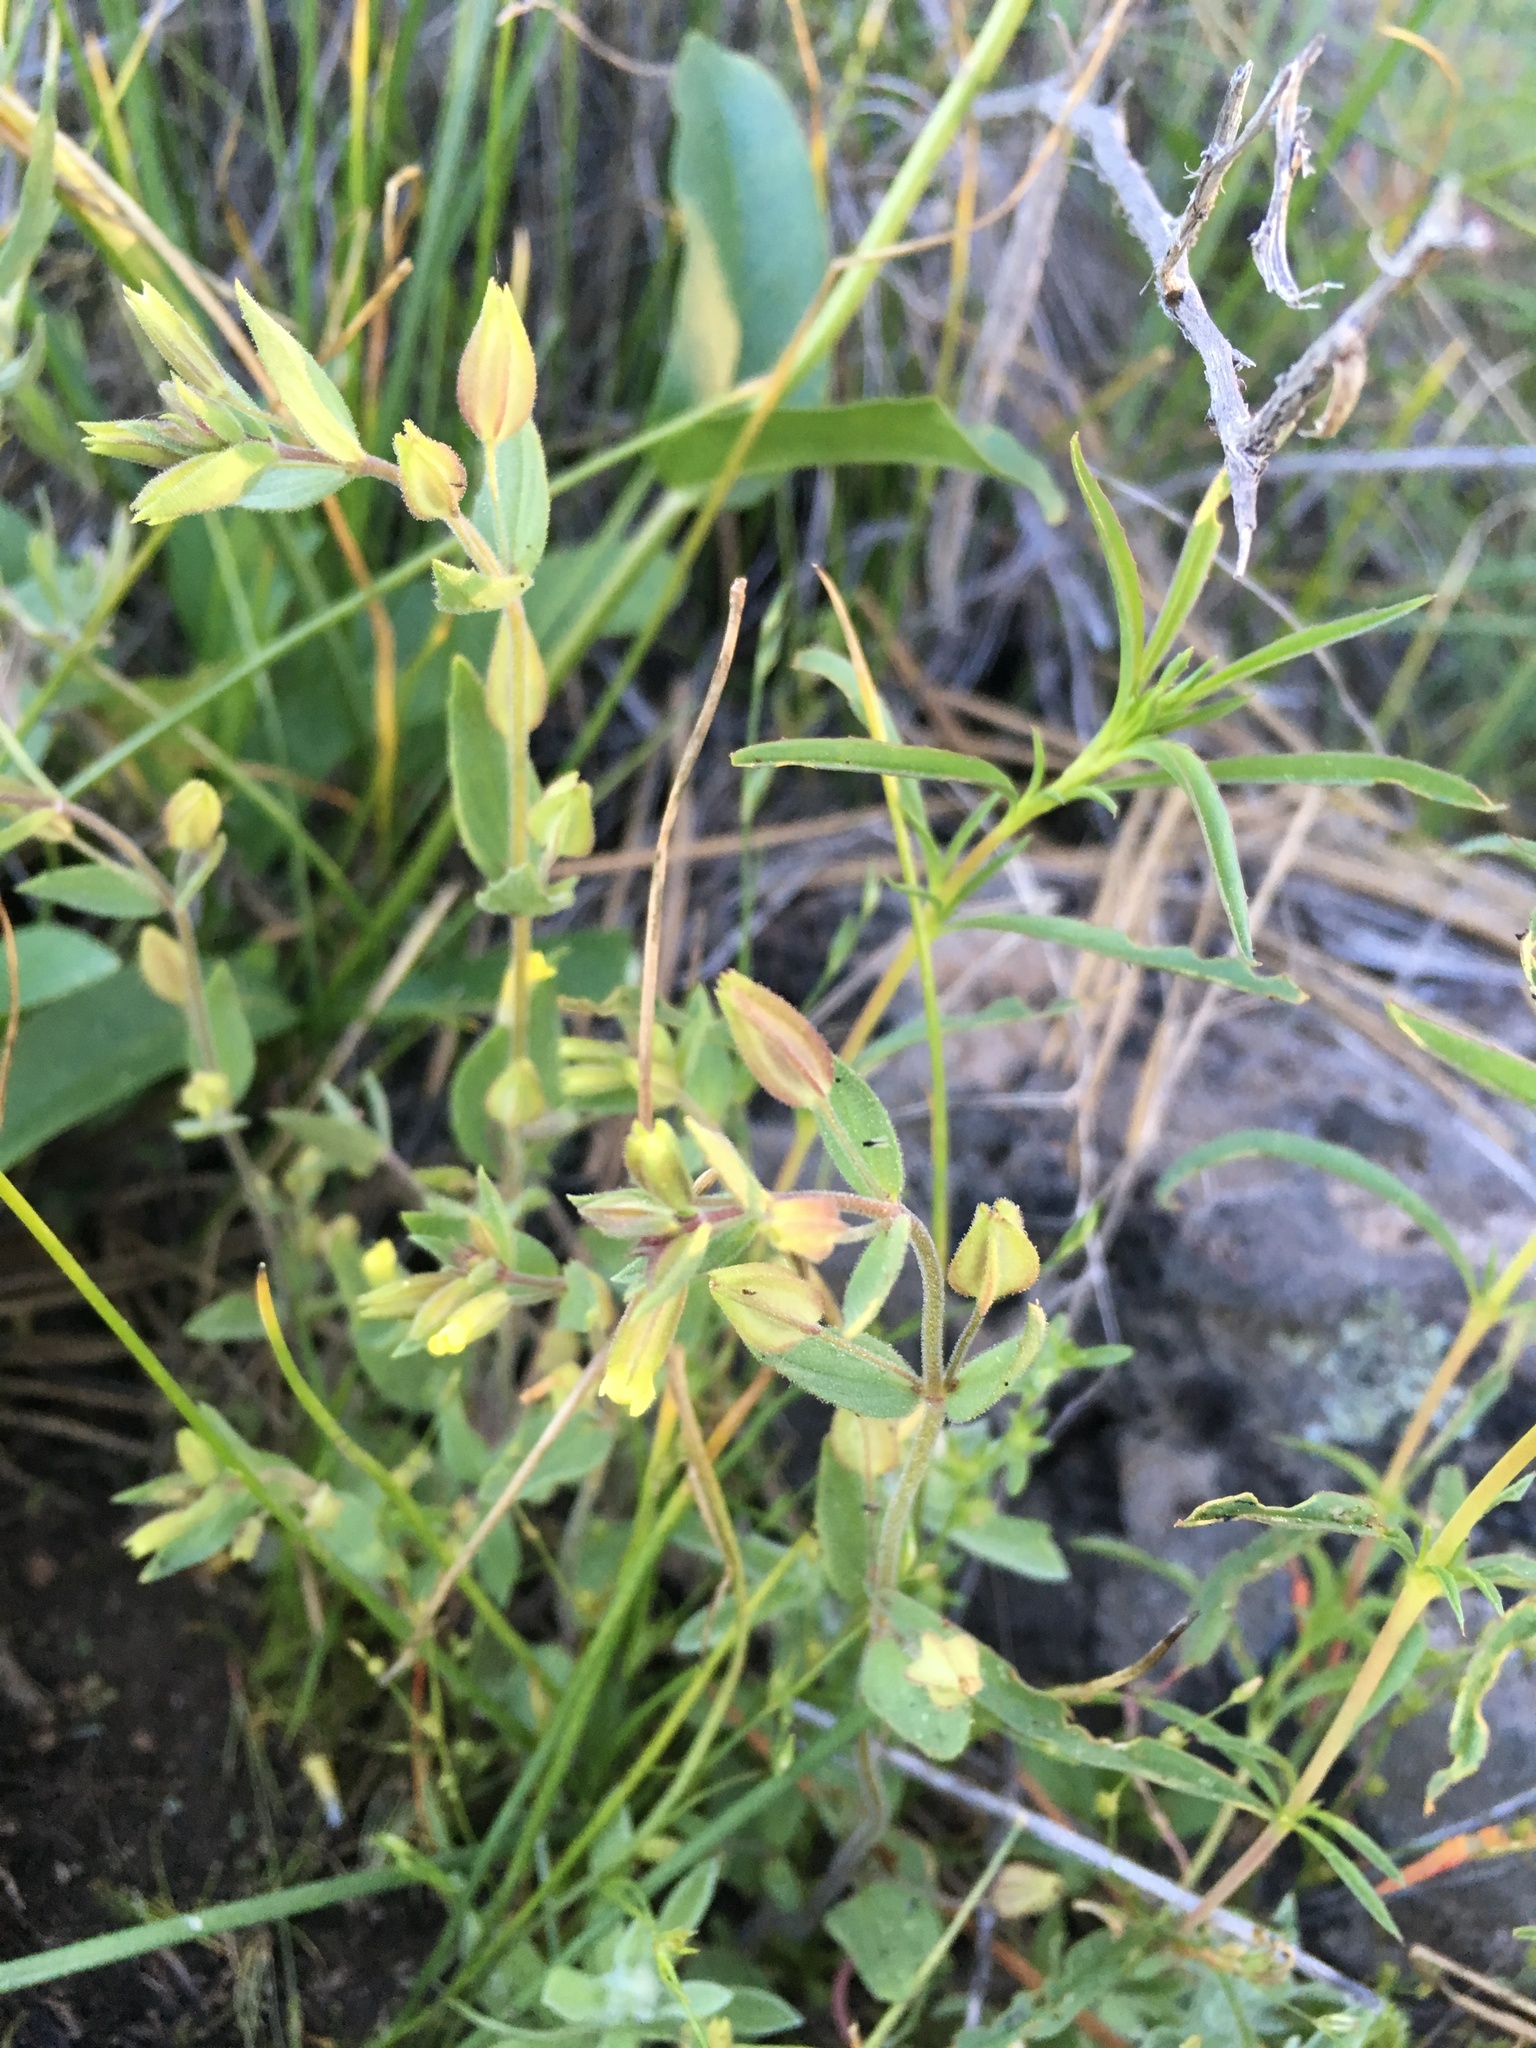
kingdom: Plantae
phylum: Tracheophyta
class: Magnoliopsida
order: Lamiales
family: Phrymaceae
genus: Erythranthe
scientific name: Erythranthe inflatula
